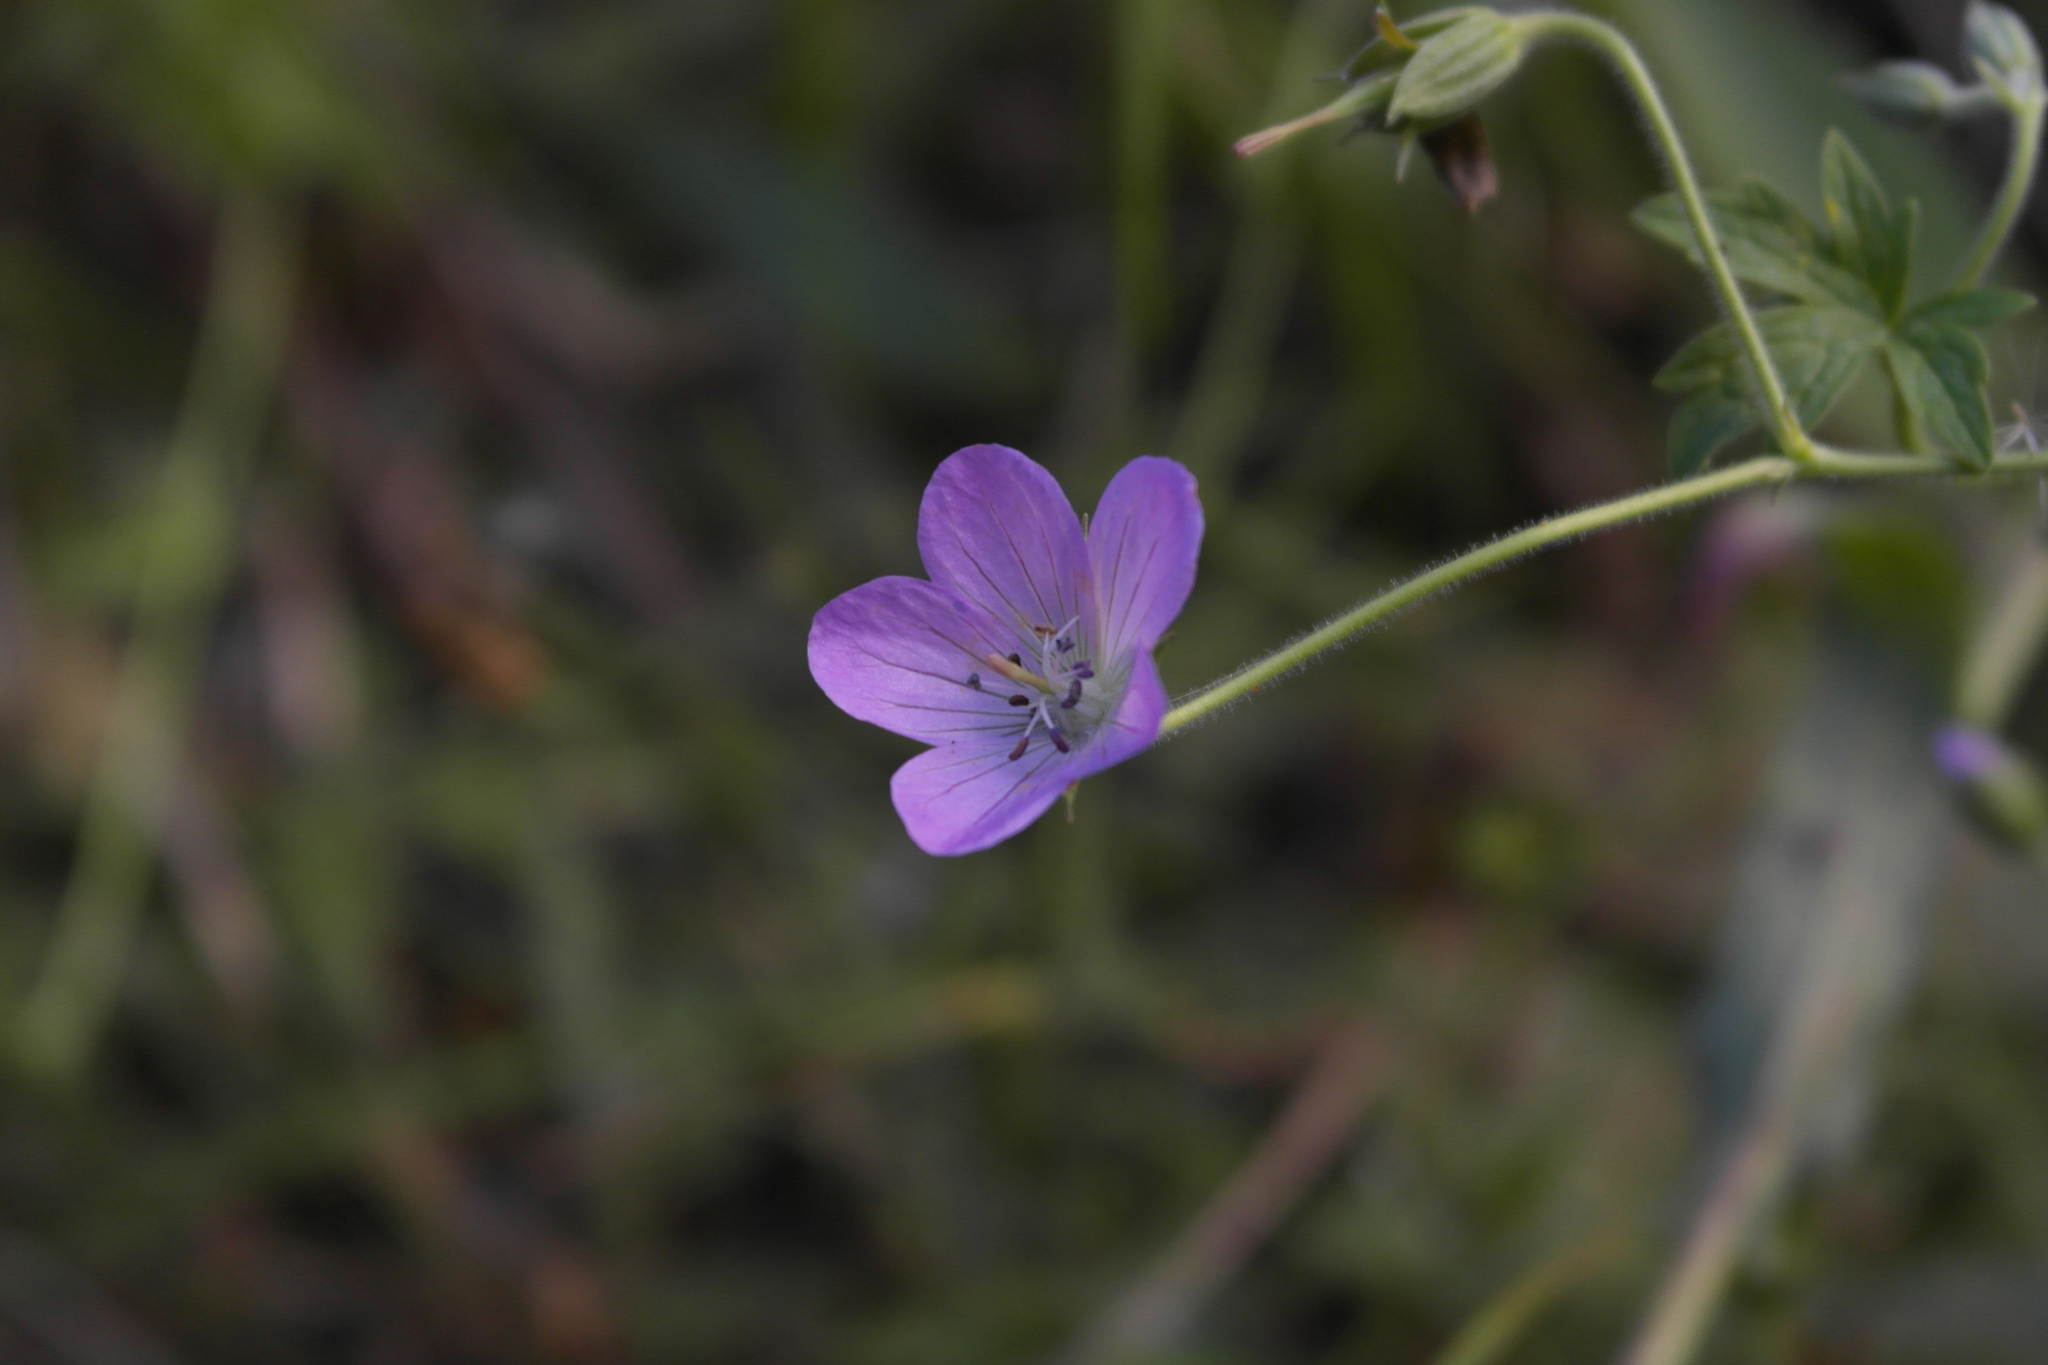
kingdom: Plantae
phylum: Tracheophyta
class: Magnoliopsida
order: Geraniales
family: Geraniaceae
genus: Geranium
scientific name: Geranium collinum
